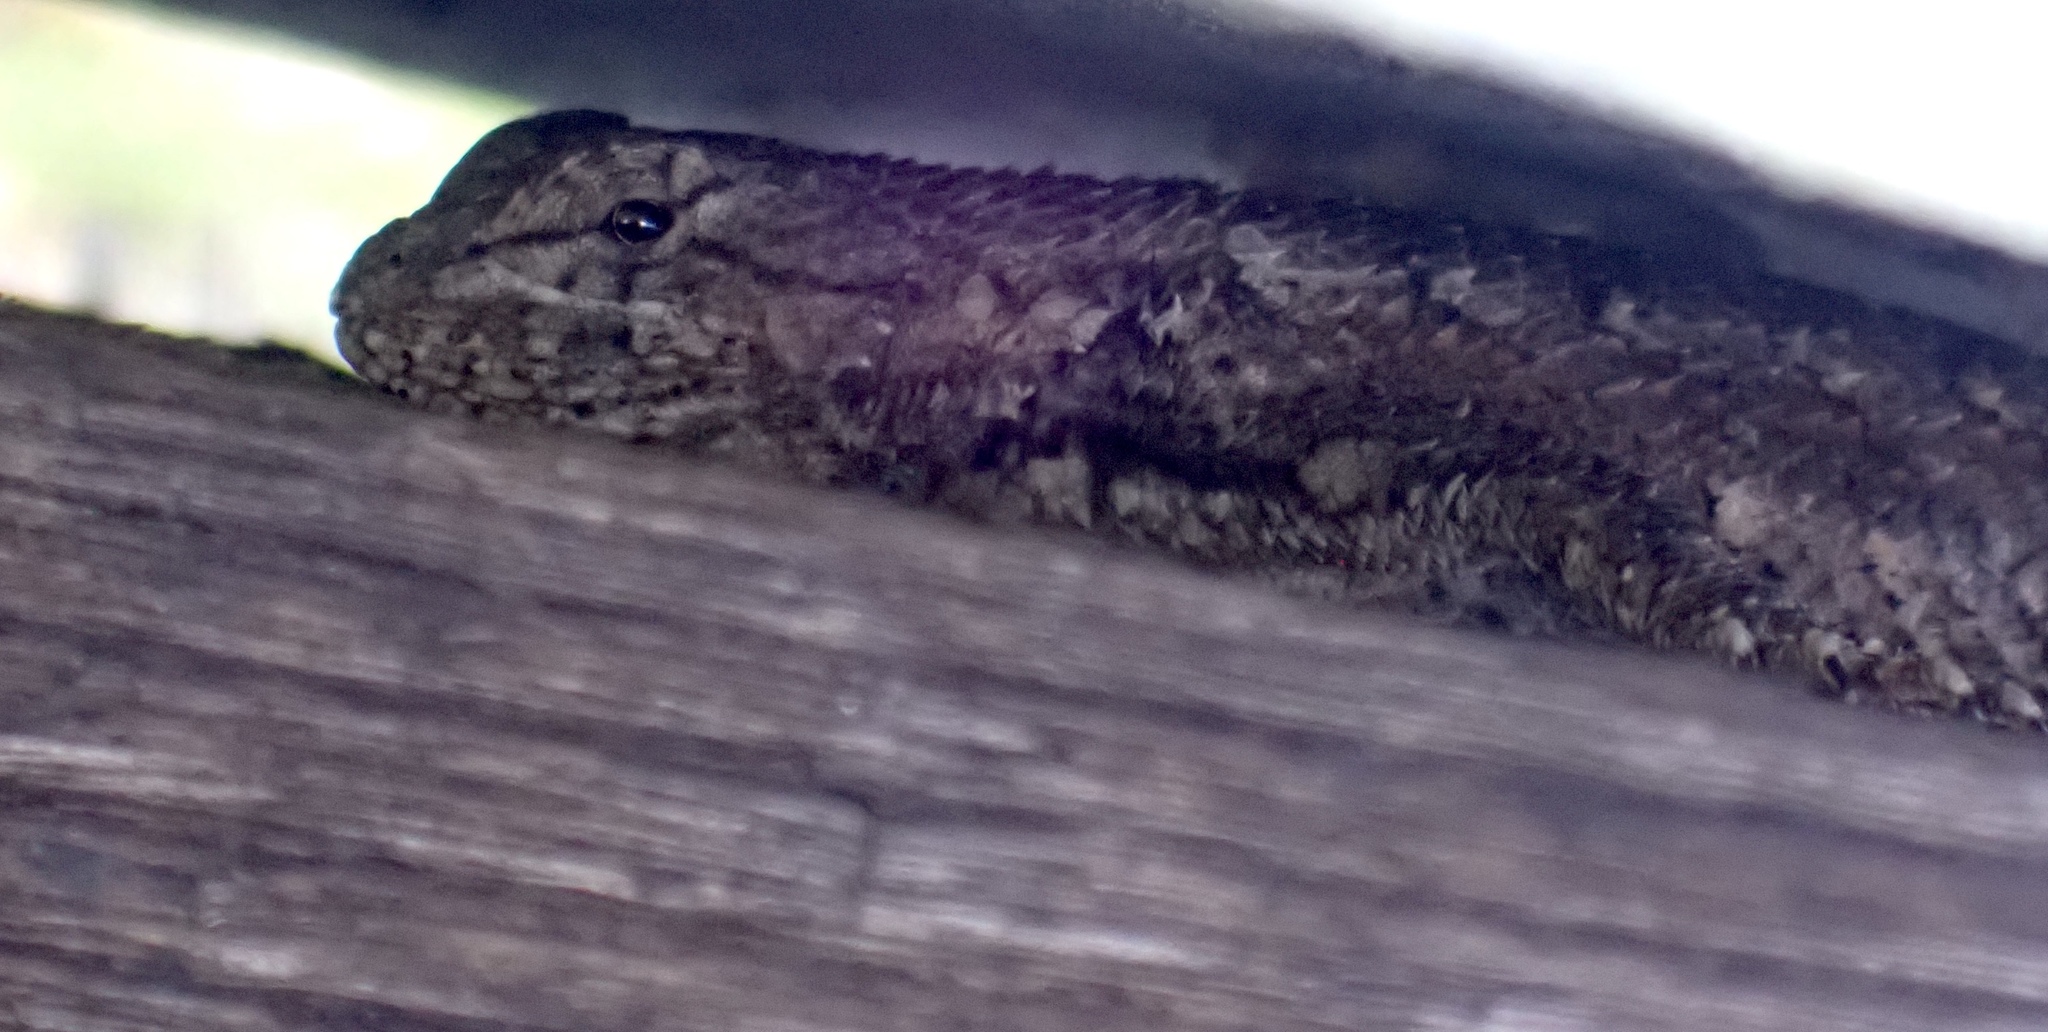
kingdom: Animalia
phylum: Chordata
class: Squamata
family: Phrynosomatidae
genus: Sceloporus
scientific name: Sceloporus undulatus
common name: Eastern fence lizard
